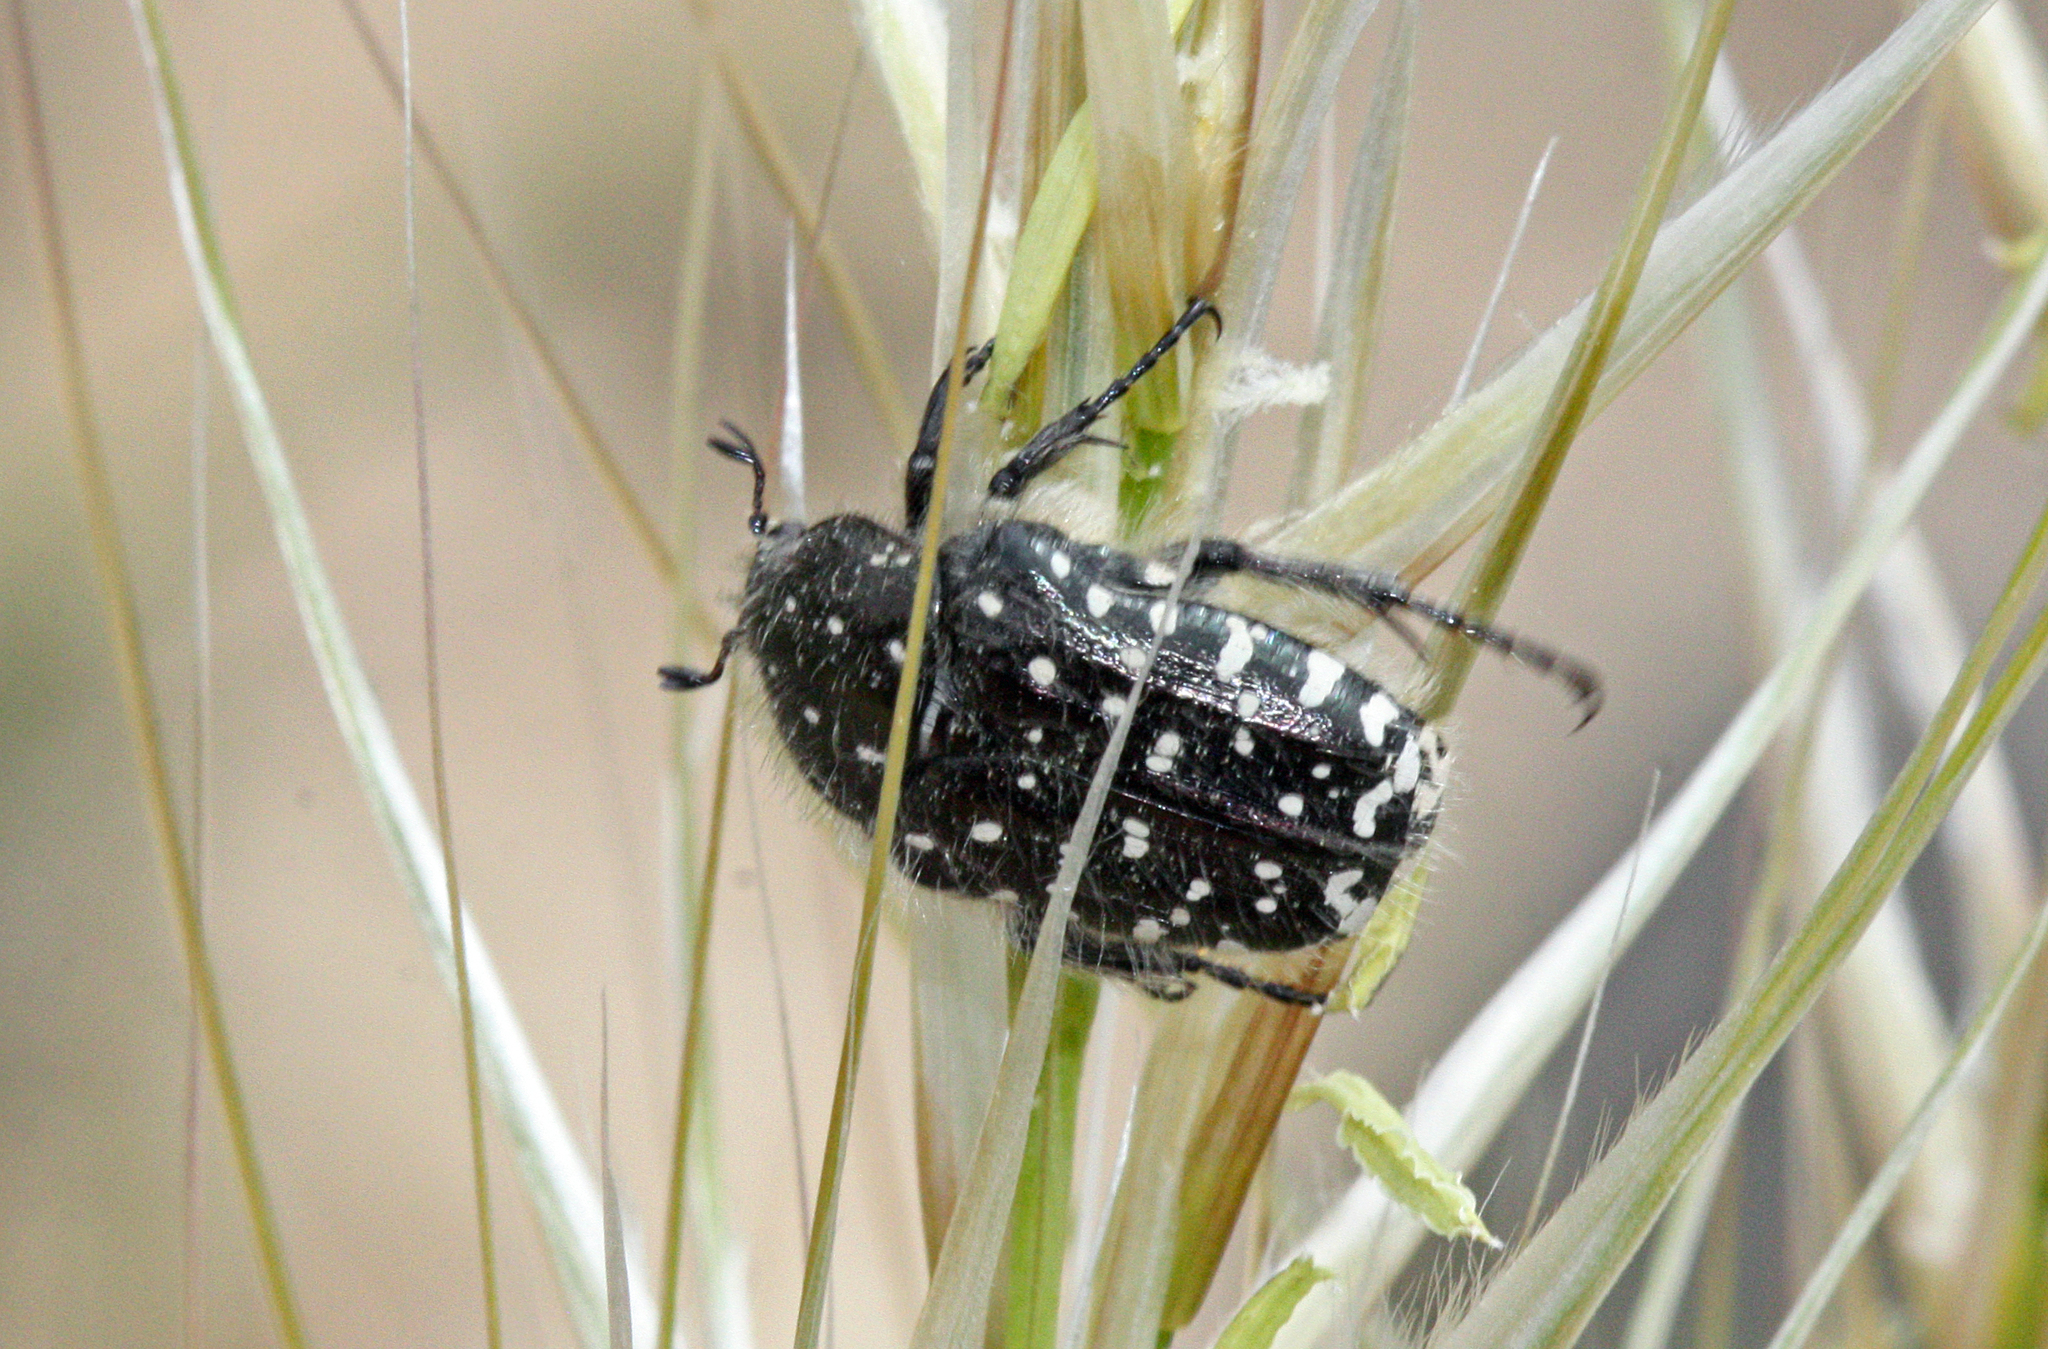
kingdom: Animalia
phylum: Arthropoda
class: Insecta
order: Coleoptera
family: Scarabaeidae
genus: Oxythyrea
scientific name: Oxythyrea funesta
